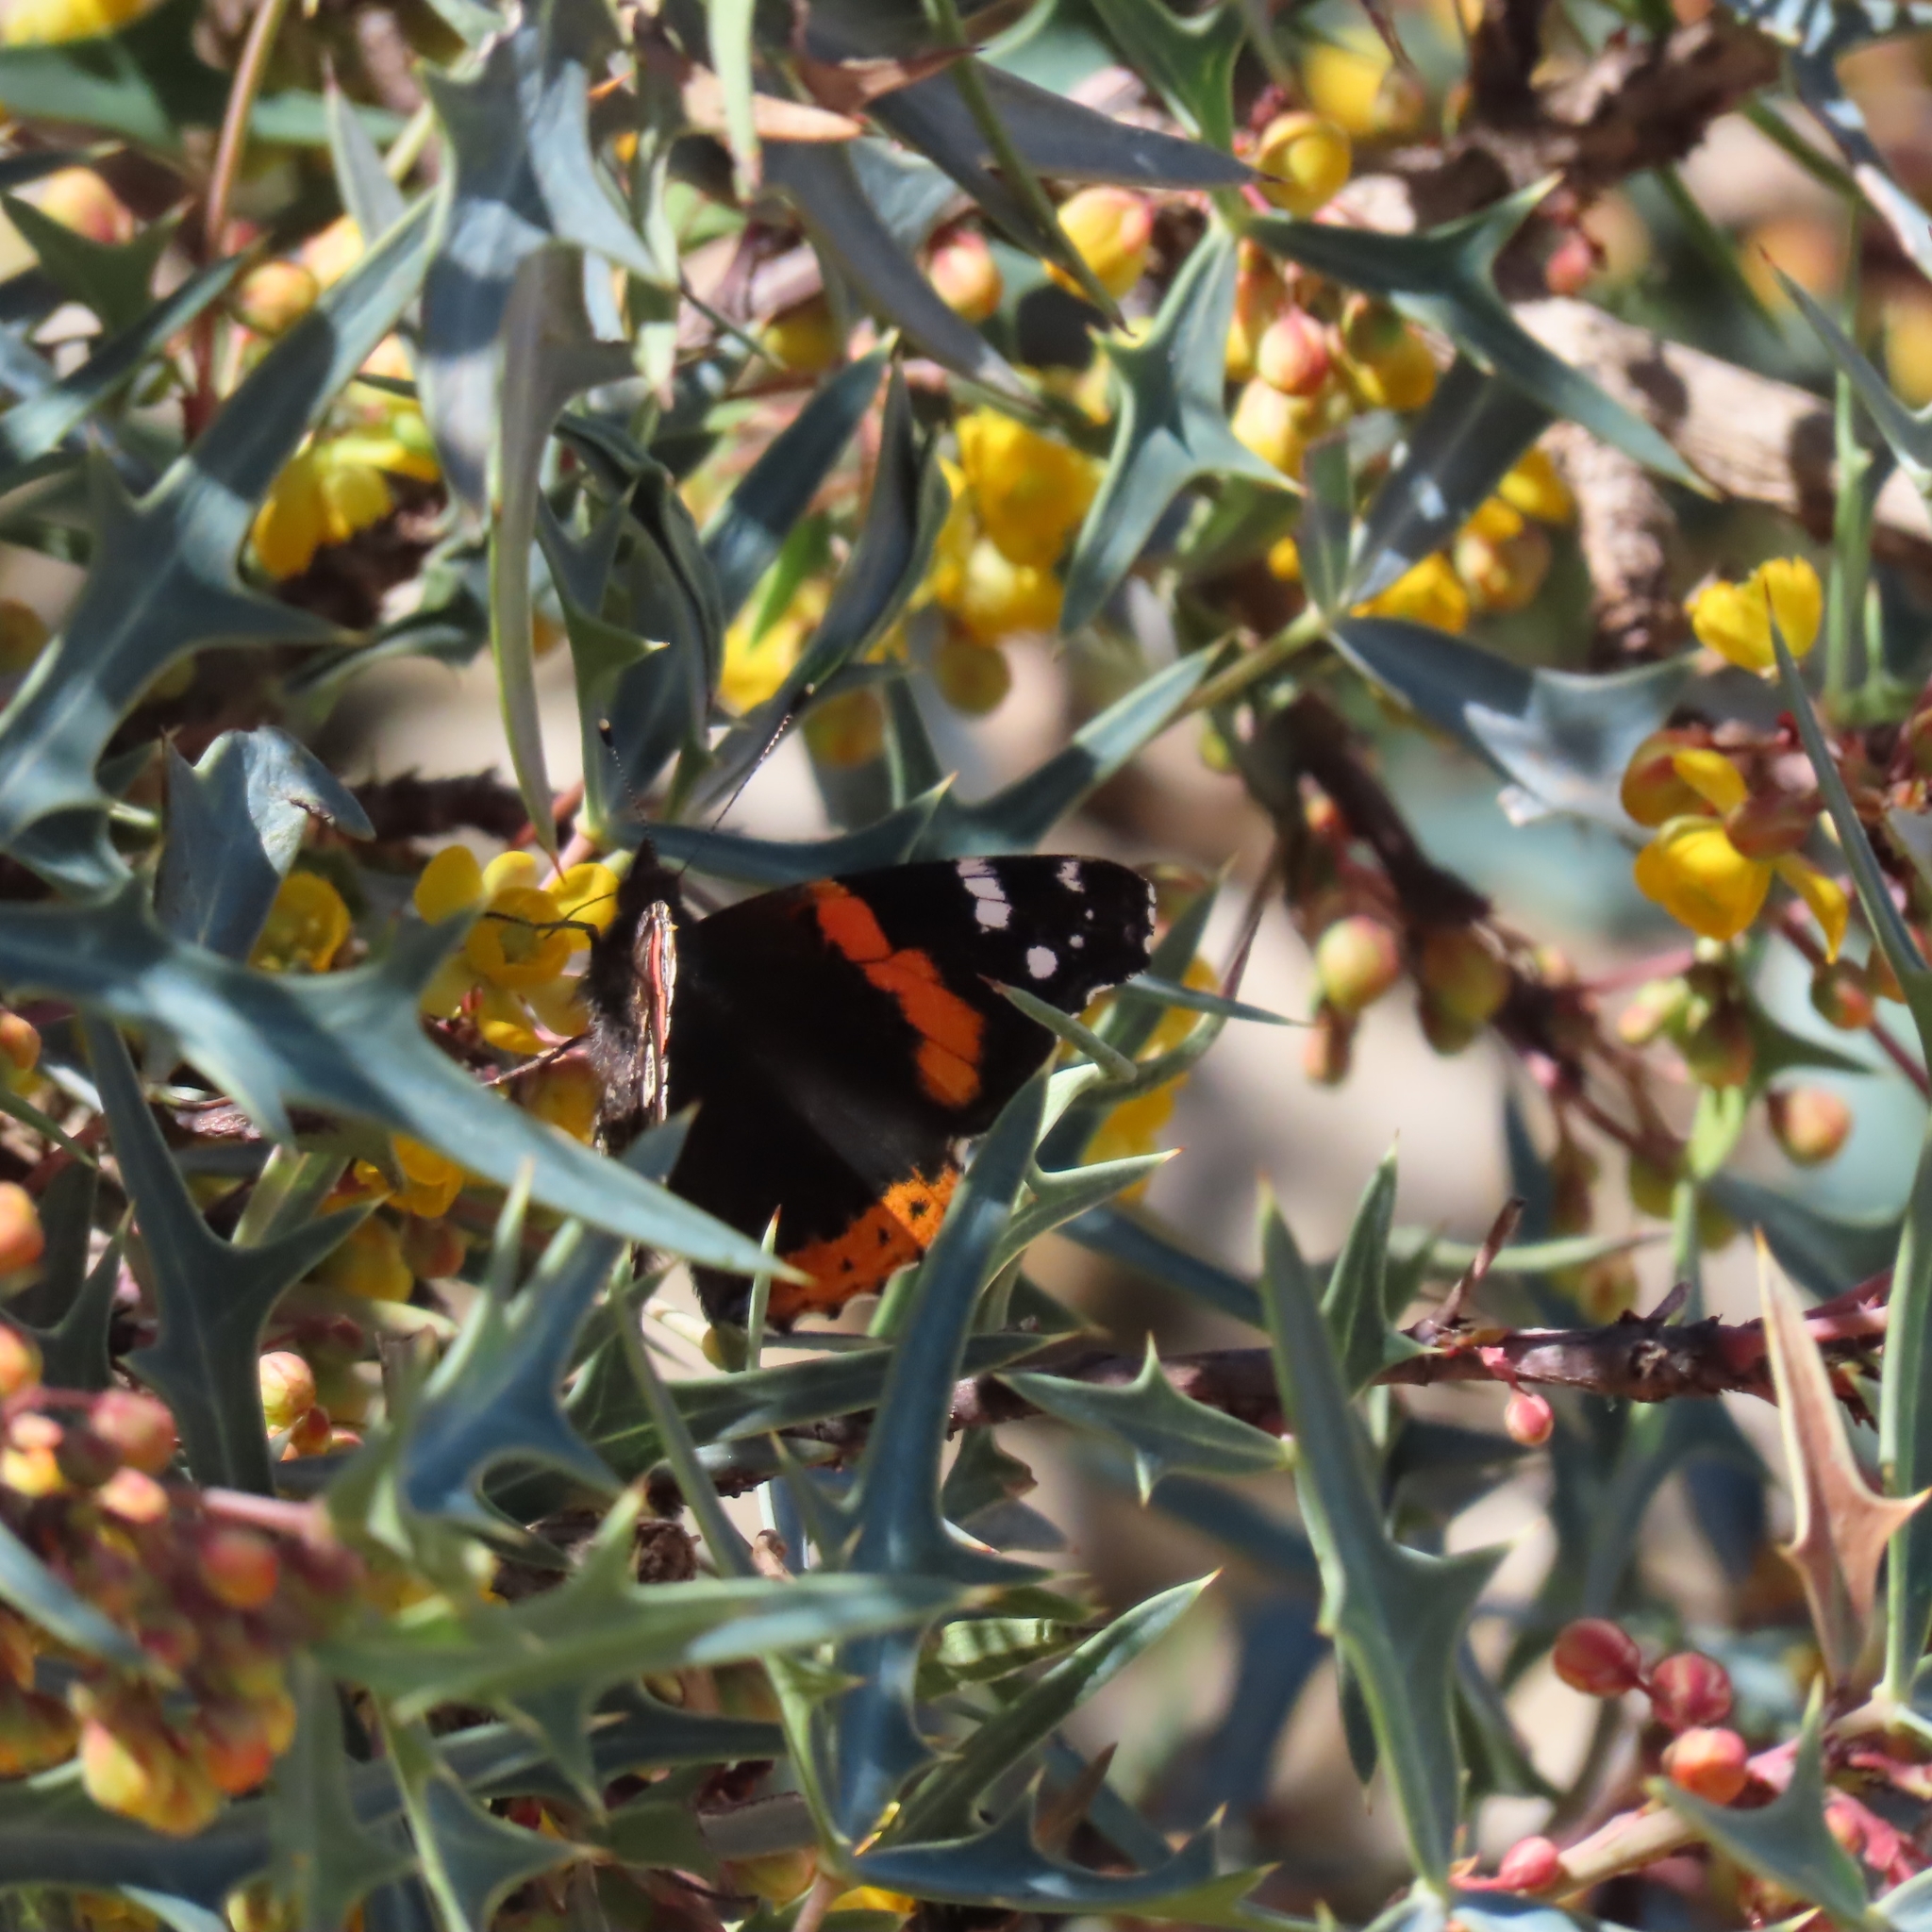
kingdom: Animalia
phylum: Arthropoda
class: Insecta
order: Lepidoptera
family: Nymphalidae
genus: Vanessa
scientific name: Vanessa atalanta
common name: Red admiral
